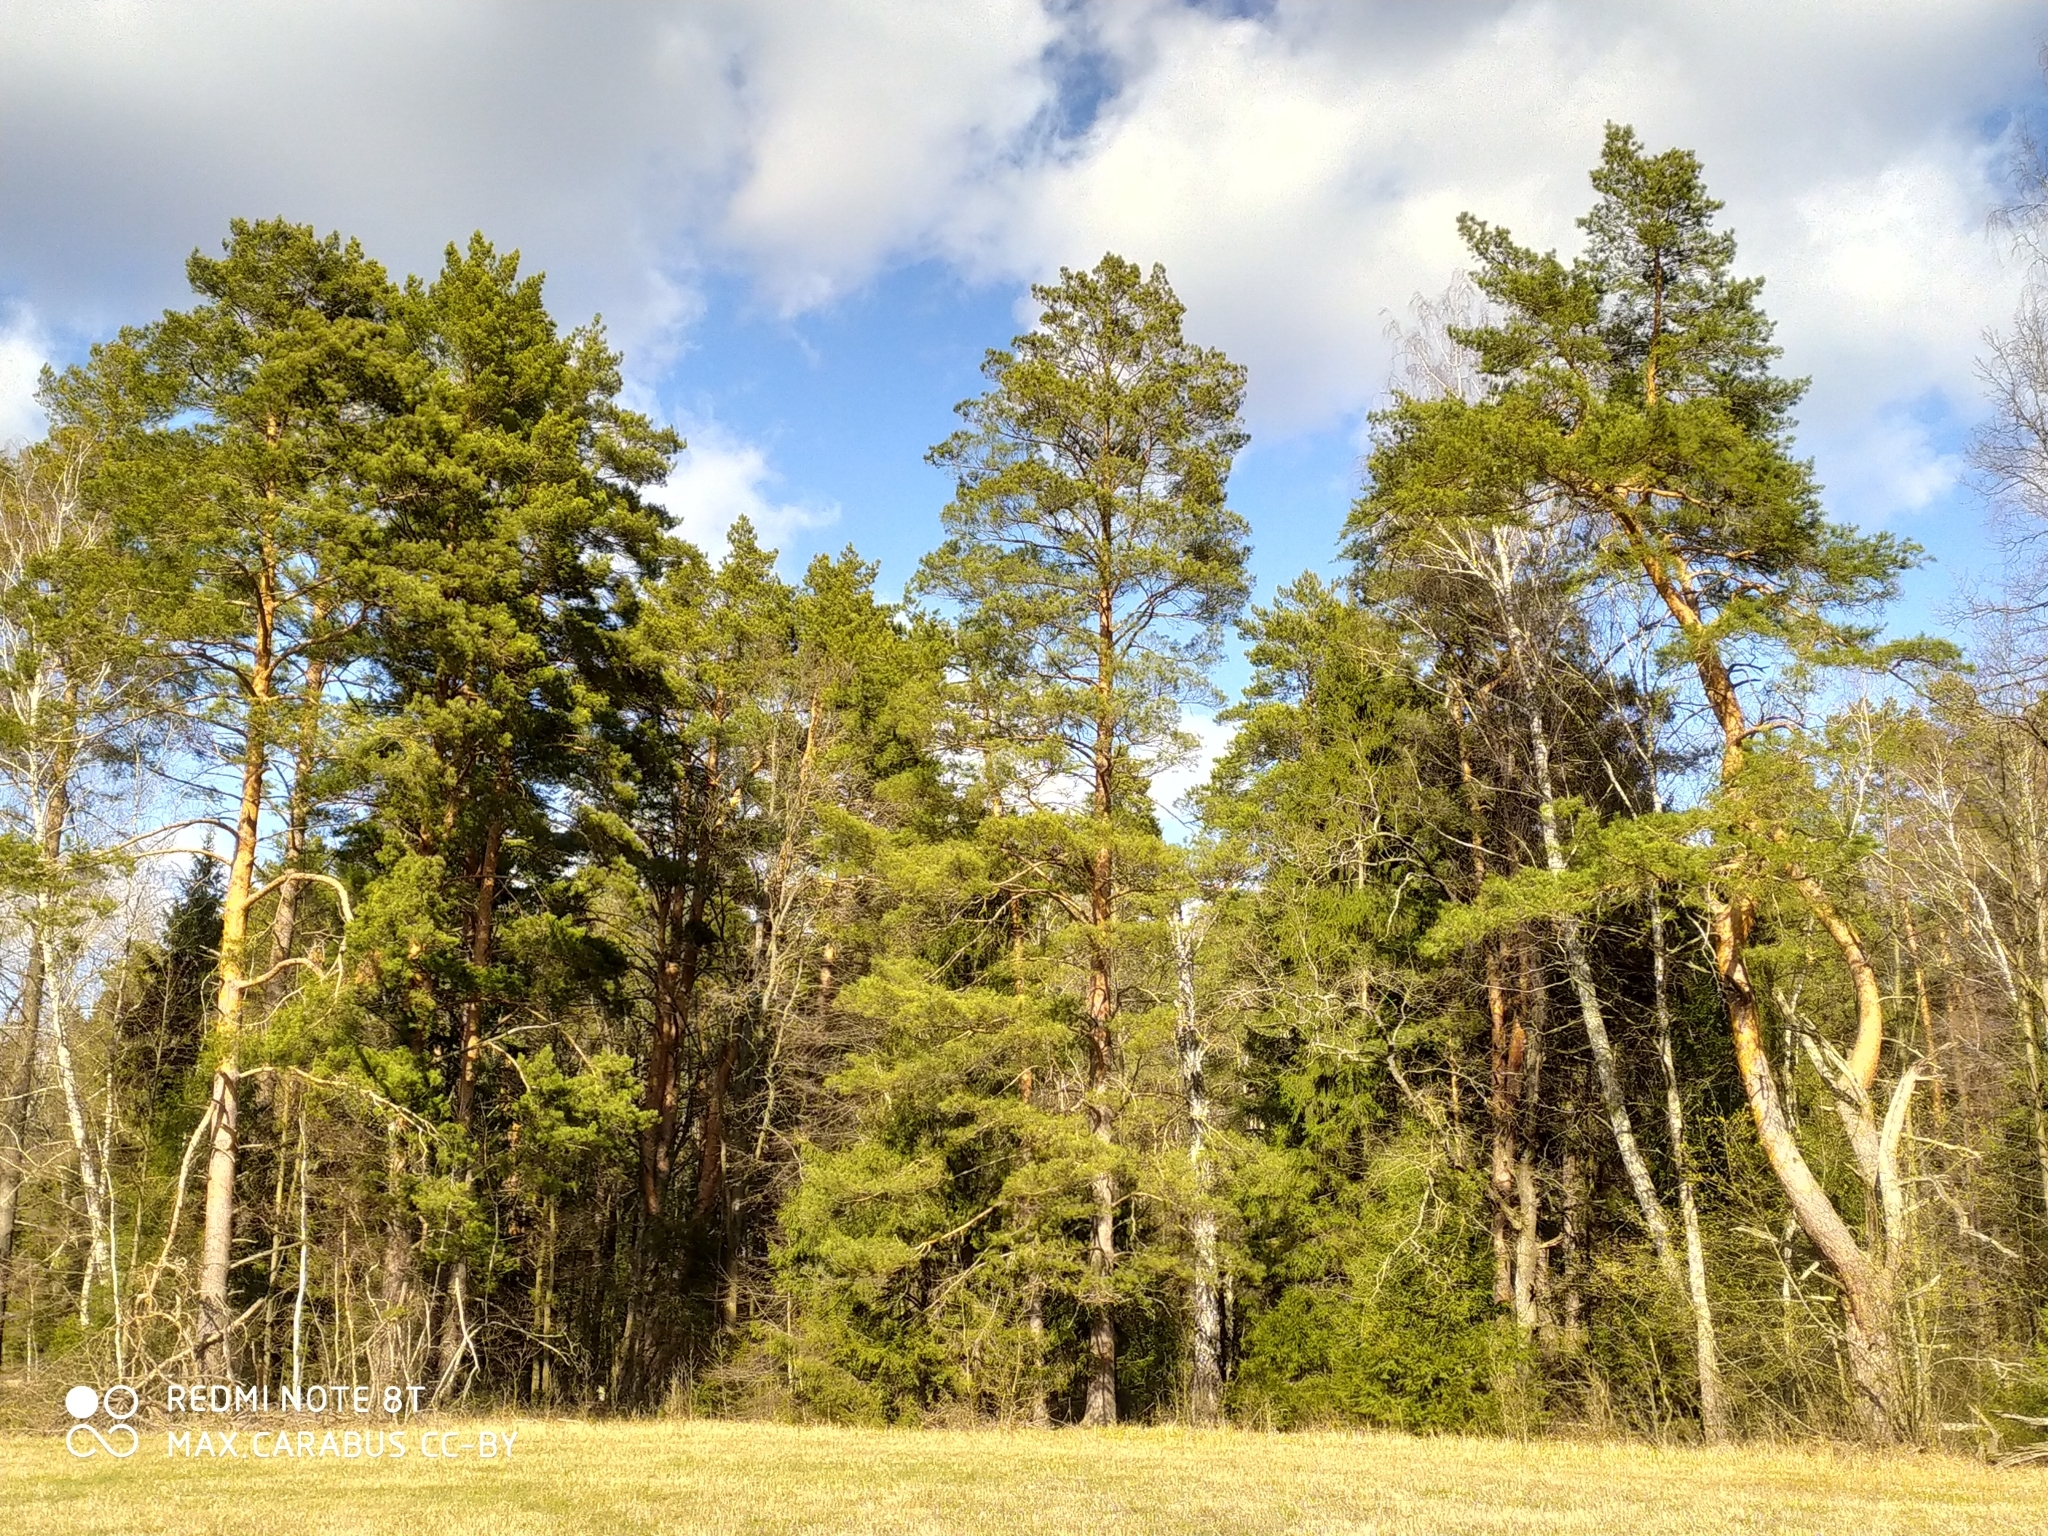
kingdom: Plantae
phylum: Tracheophyta
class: Pinopsida
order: Pinales
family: Pinaceae
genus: Pinus
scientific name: Pinus sylvestris
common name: Scots pine
